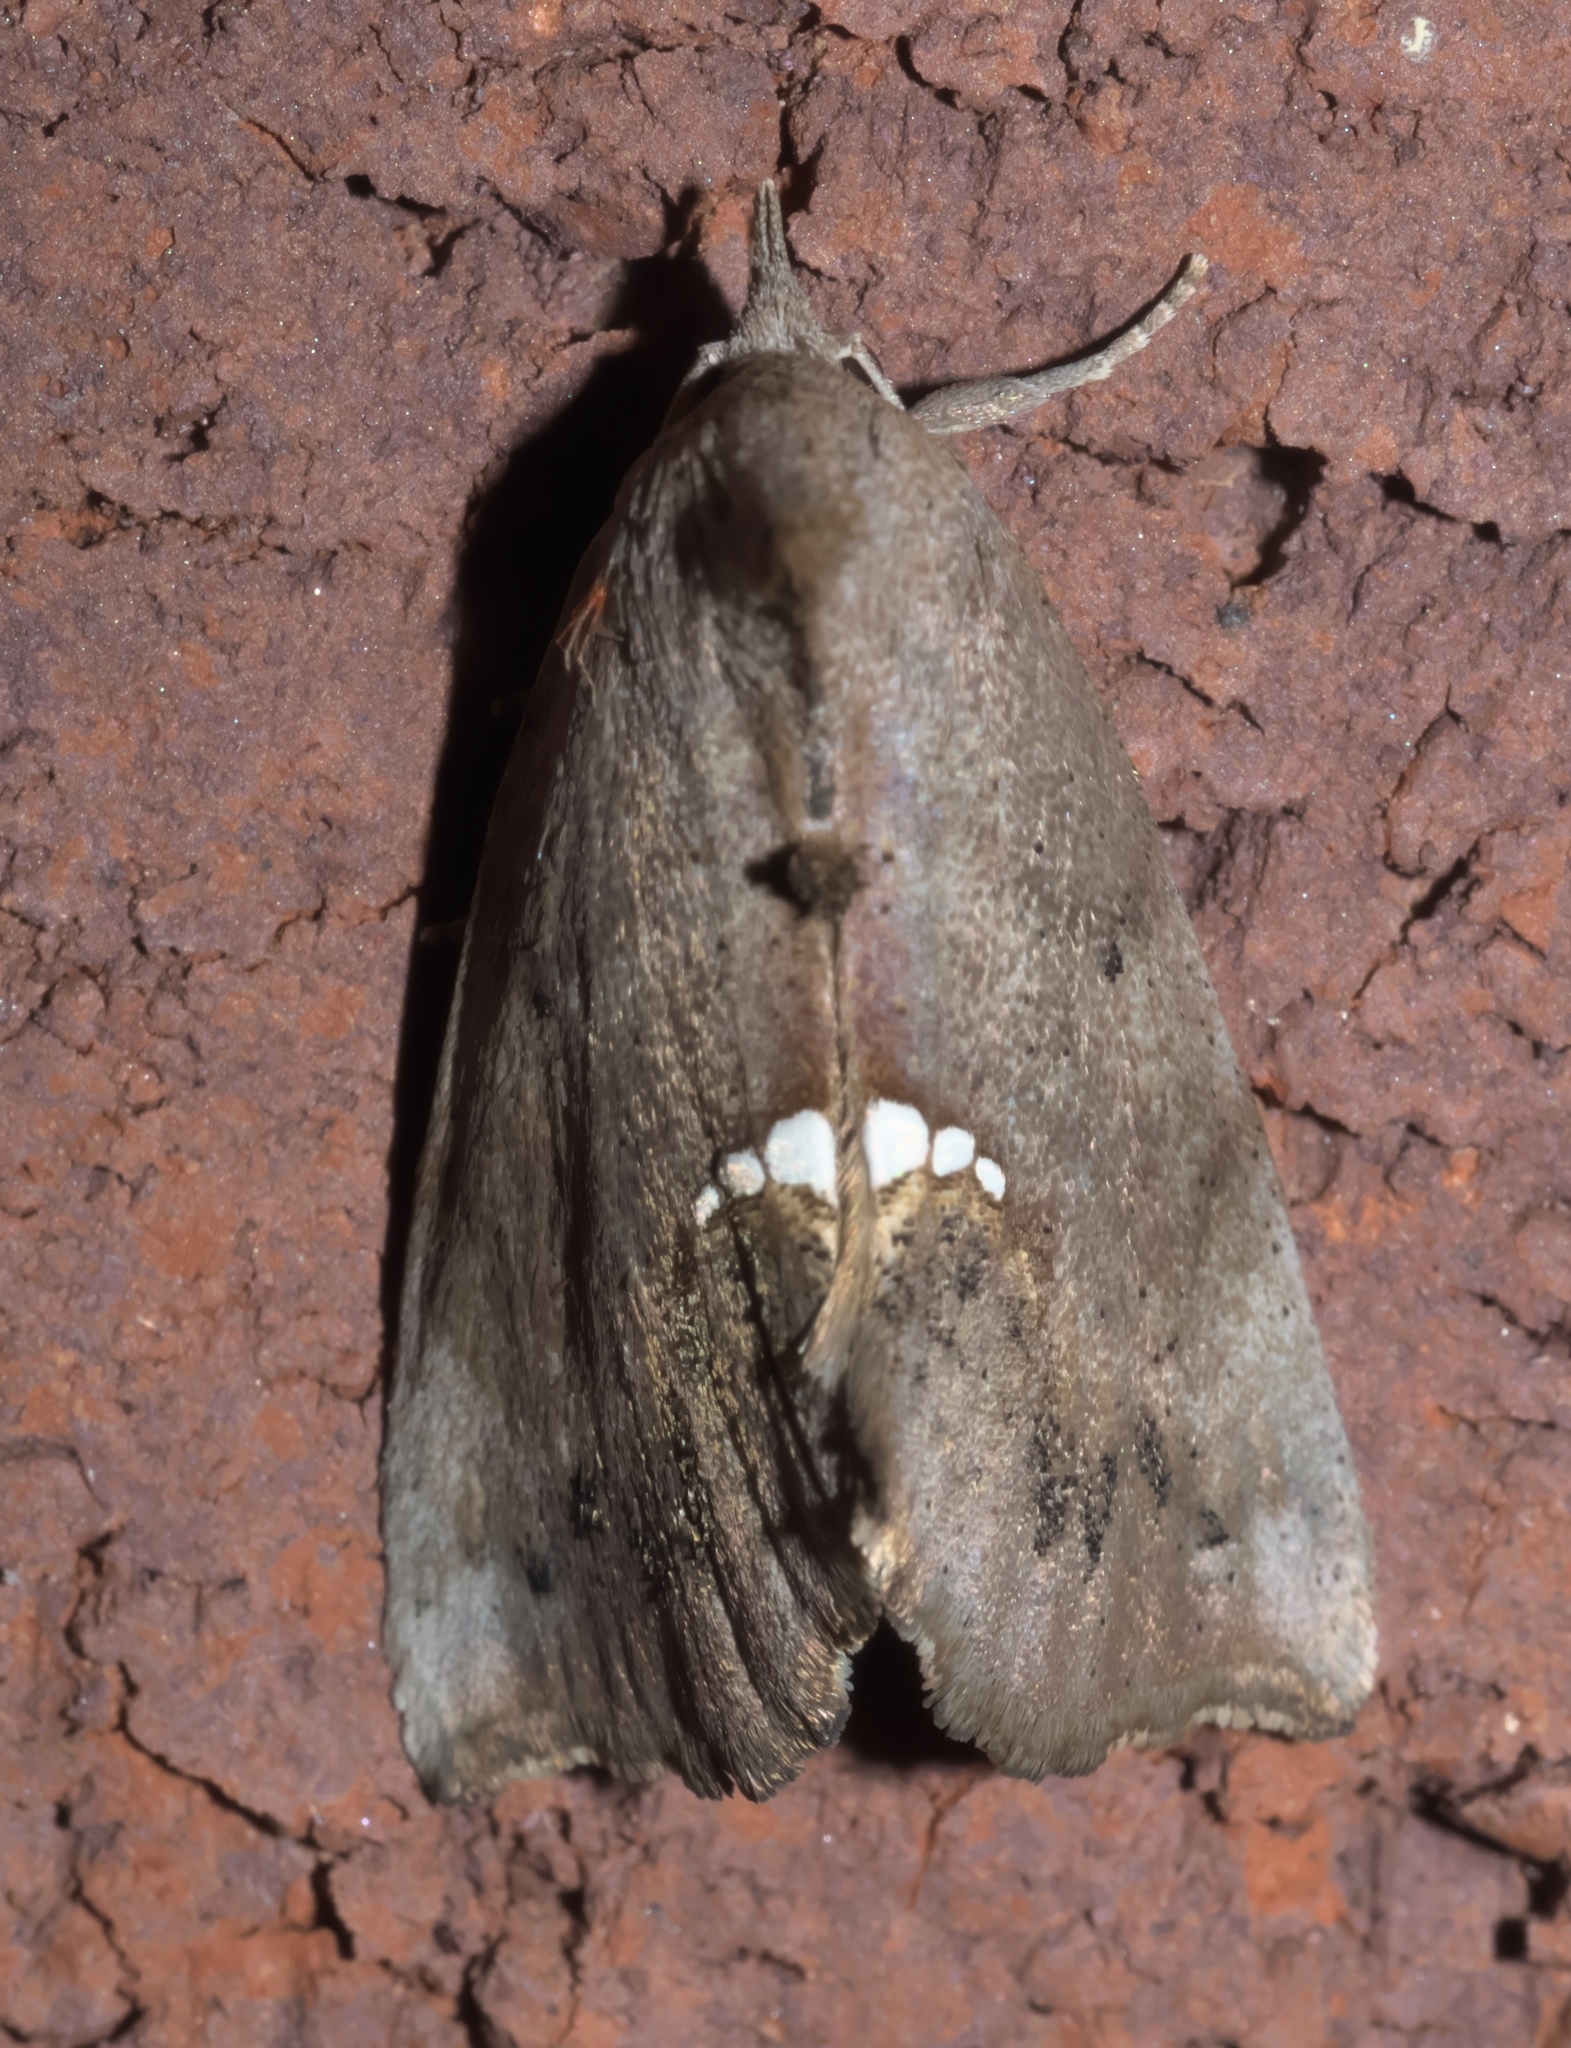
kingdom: Animalia
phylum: Arthropoda
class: Insecta
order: Lepidoptera
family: Erebidae
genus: Hypsoropha
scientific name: Hypsoropha hormos
